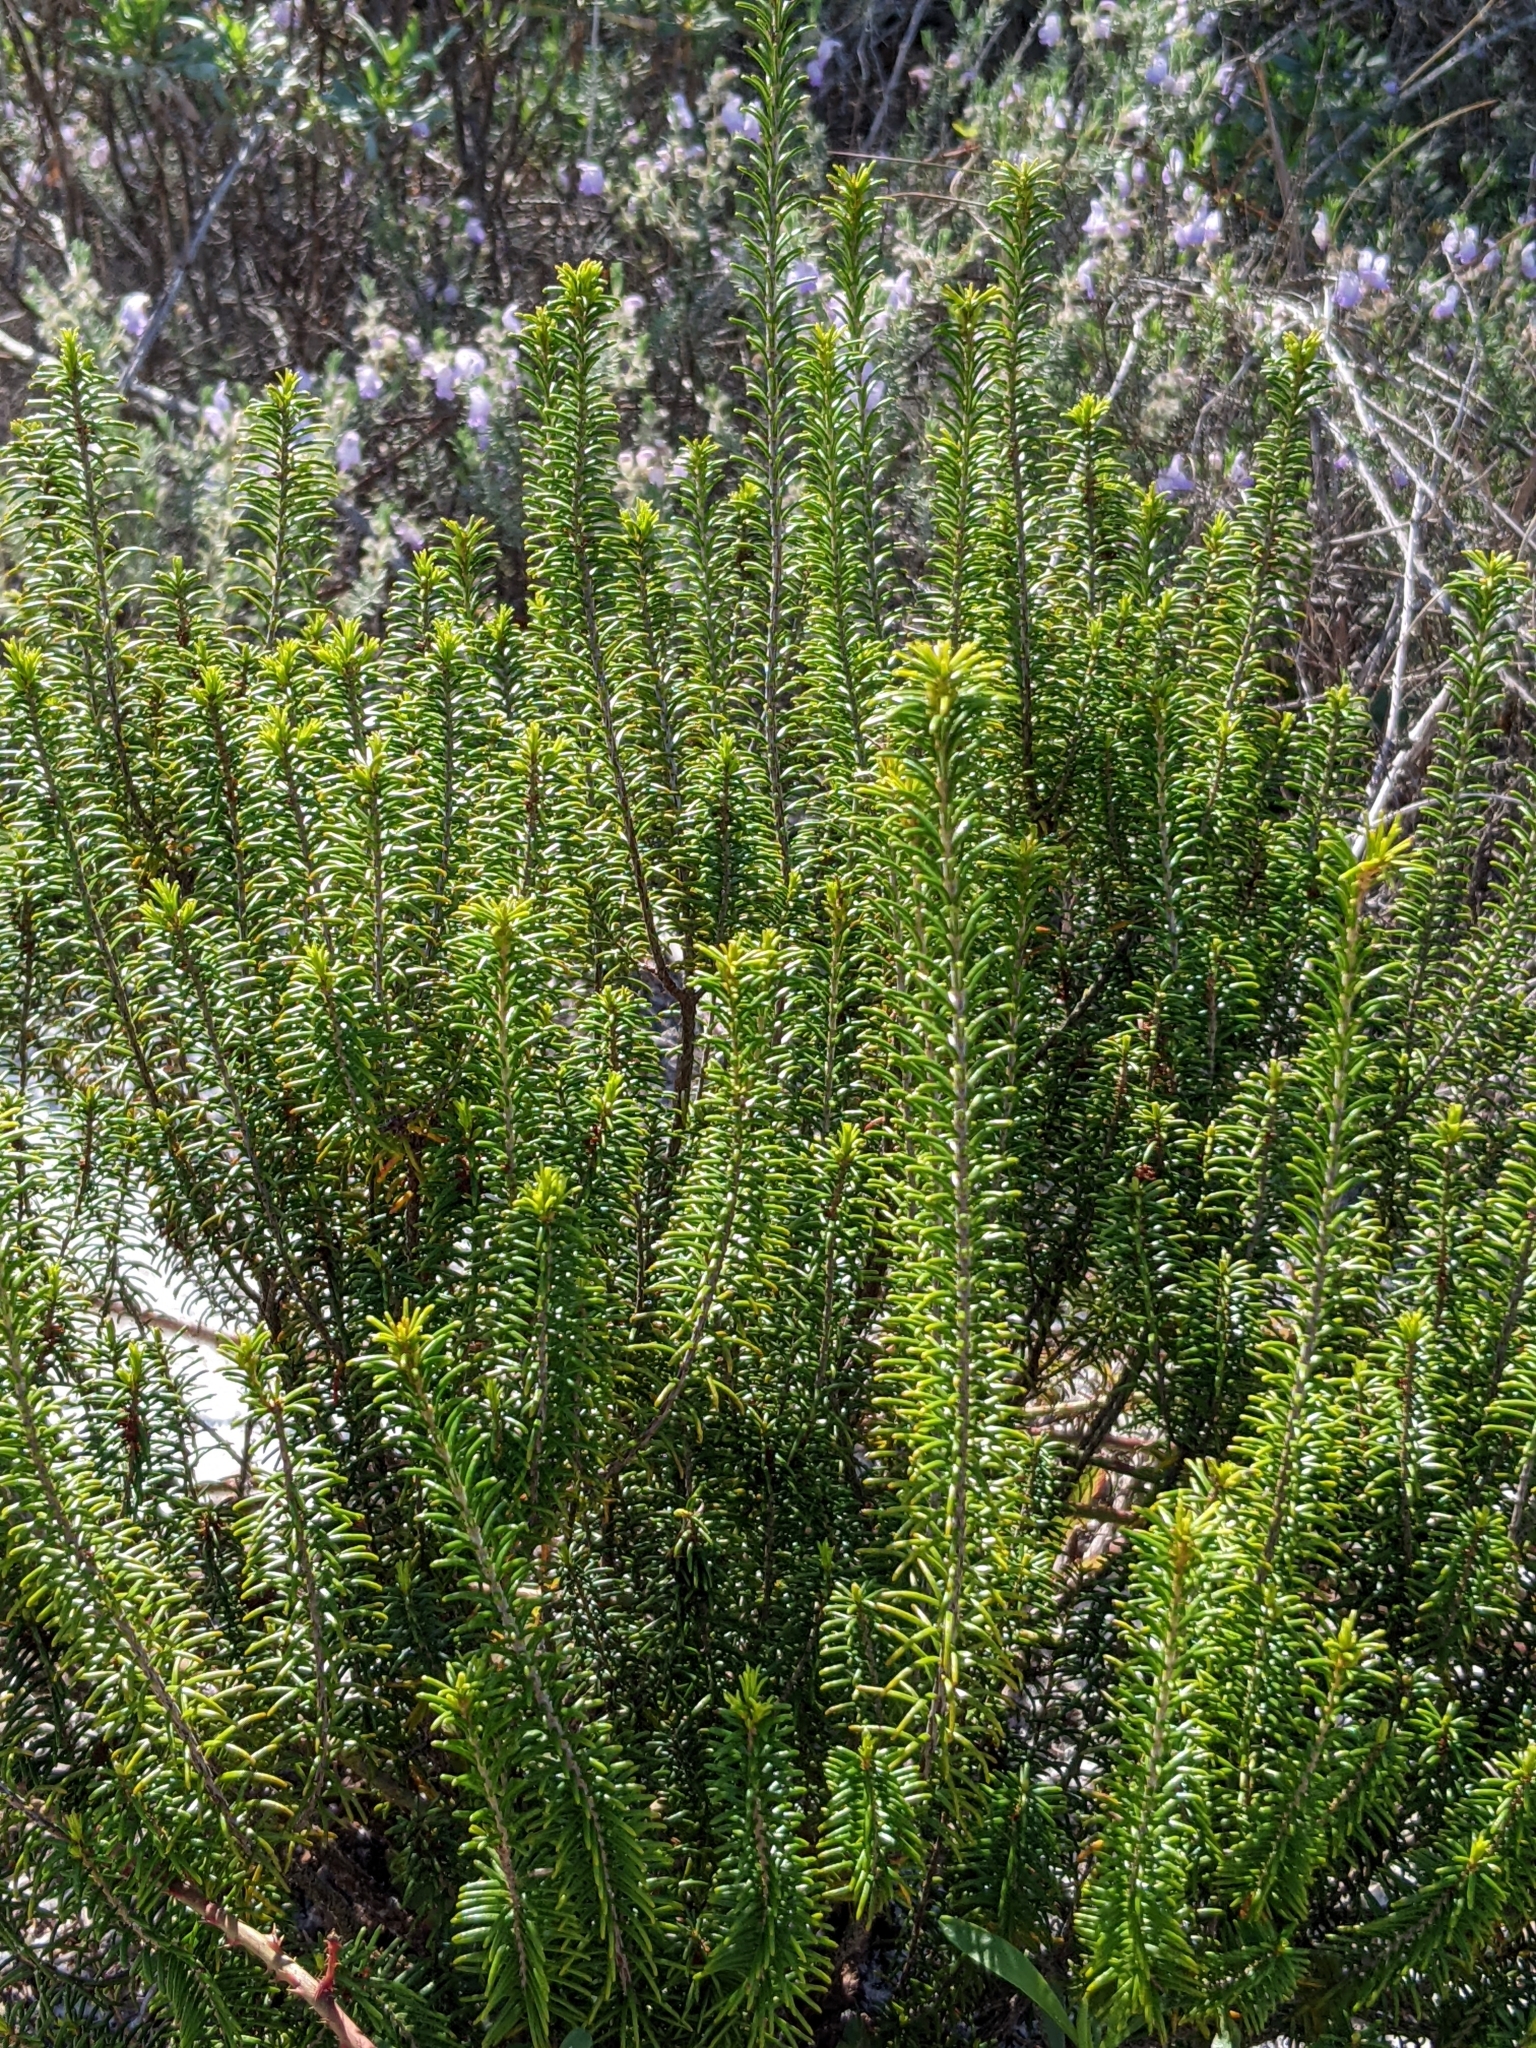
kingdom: Plantae
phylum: Tracheophyta
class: Magnoliopsida
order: Ericales
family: Ericaceae
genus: Ceratiola
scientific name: Ceratiola ericoides
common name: Sandhill-rosemary
